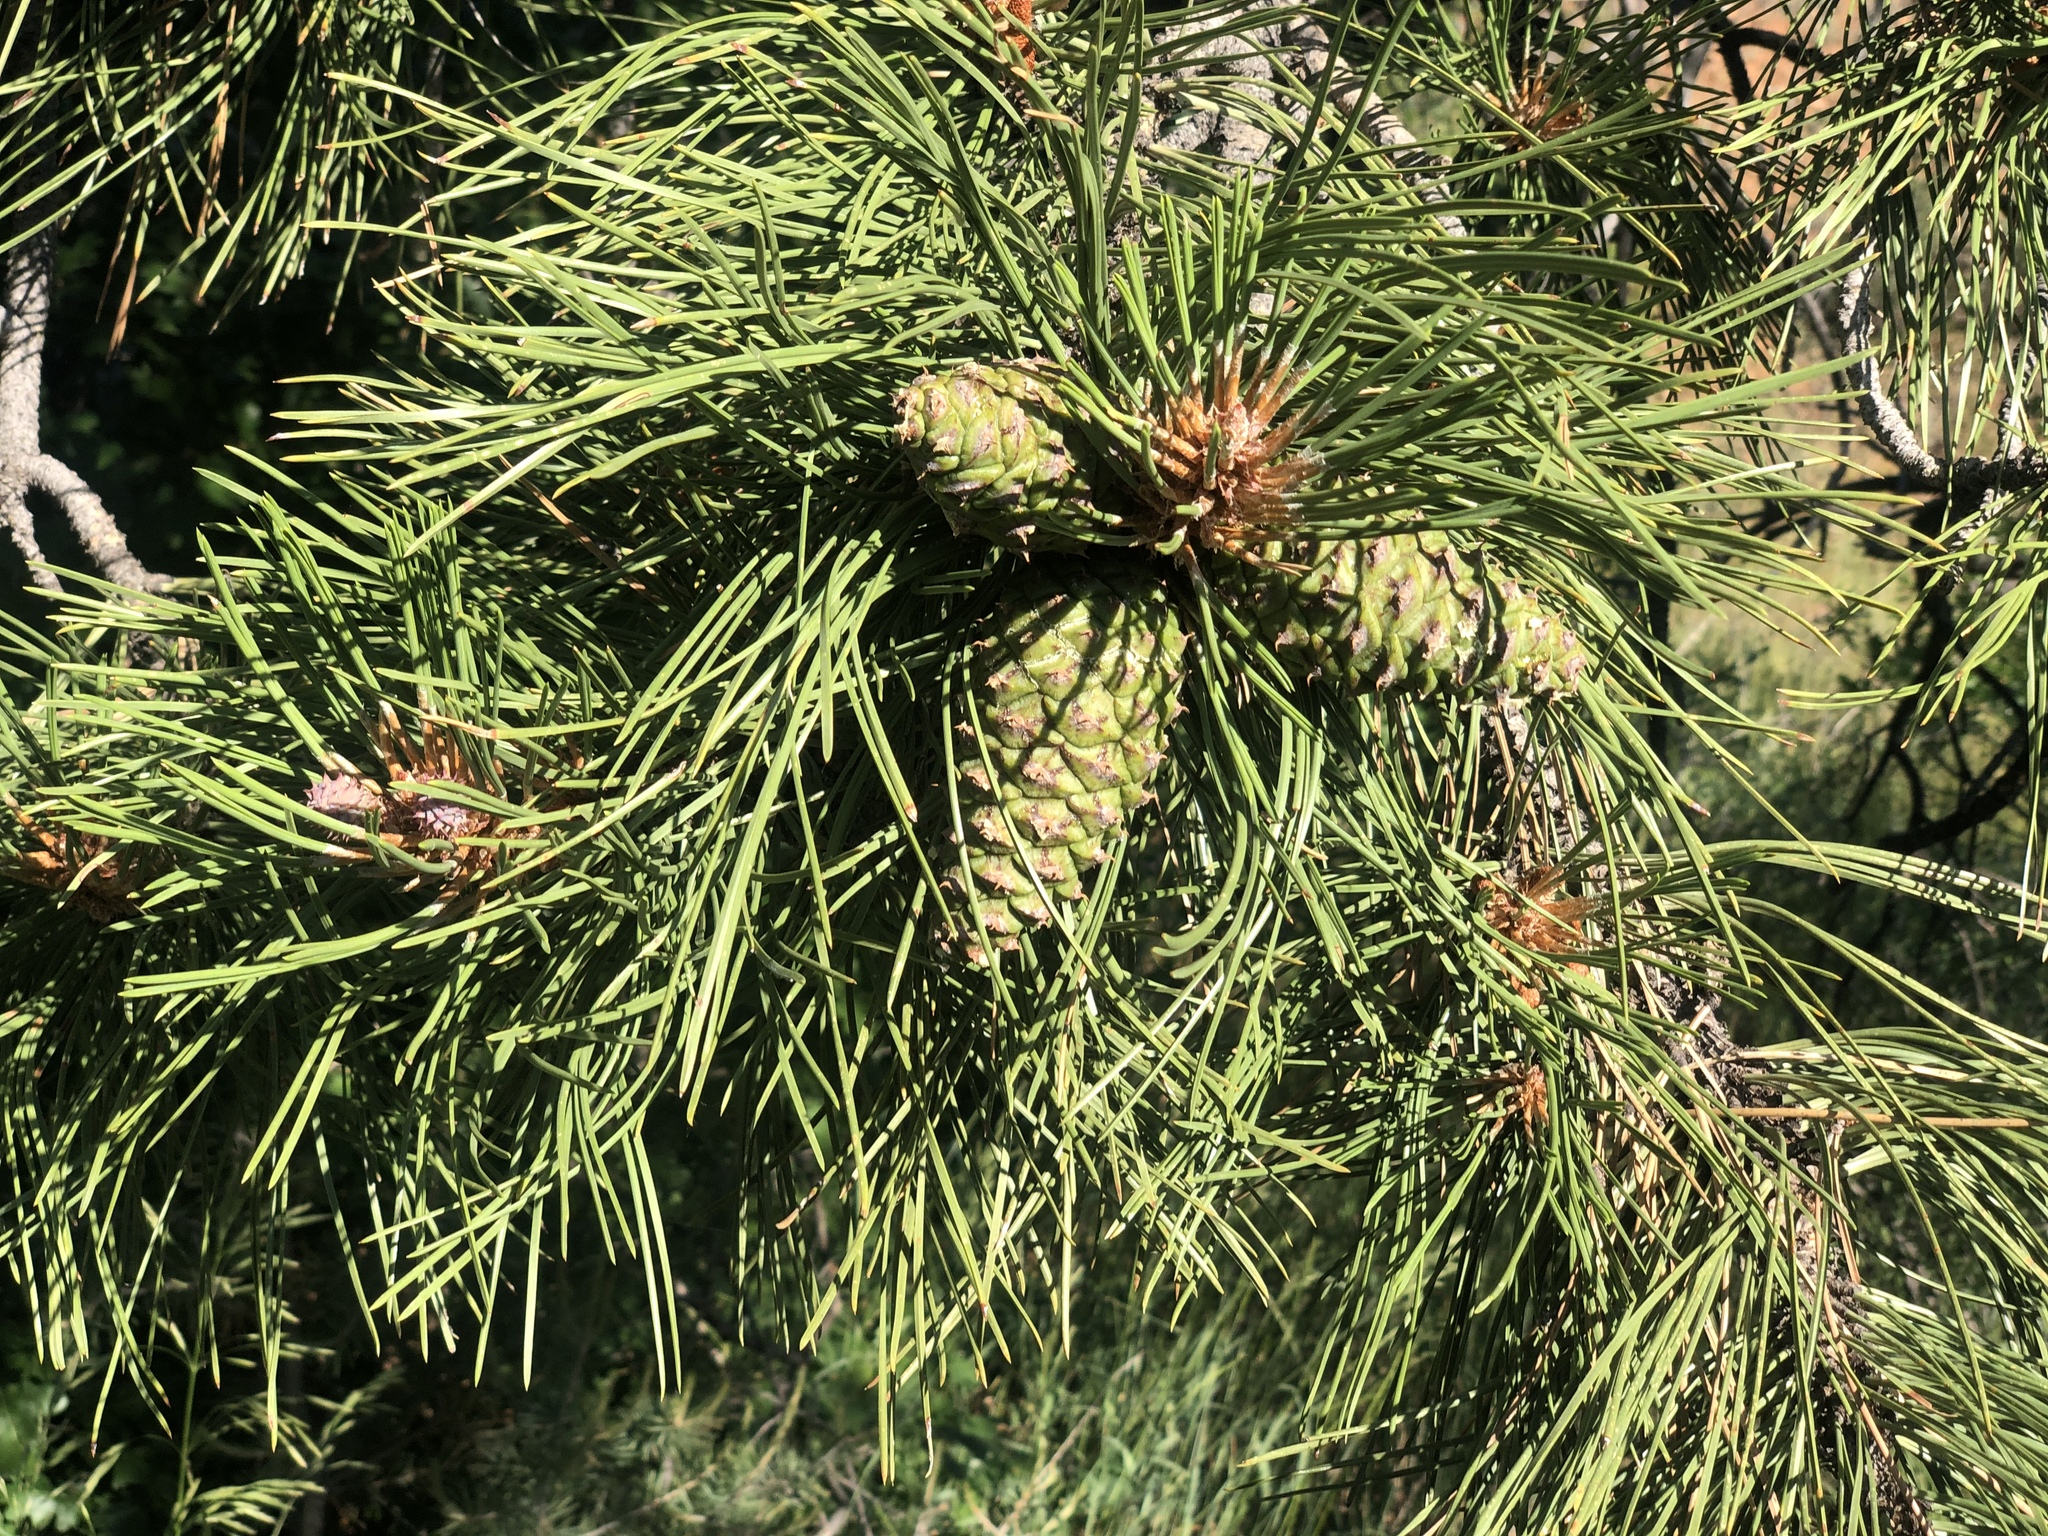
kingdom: Plantae
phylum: Tracheophyta
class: Pinopsida
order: Pinales
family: Pinaceae
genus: Pinus
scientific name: Pinus ponderosa
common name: Western yellow-pine
